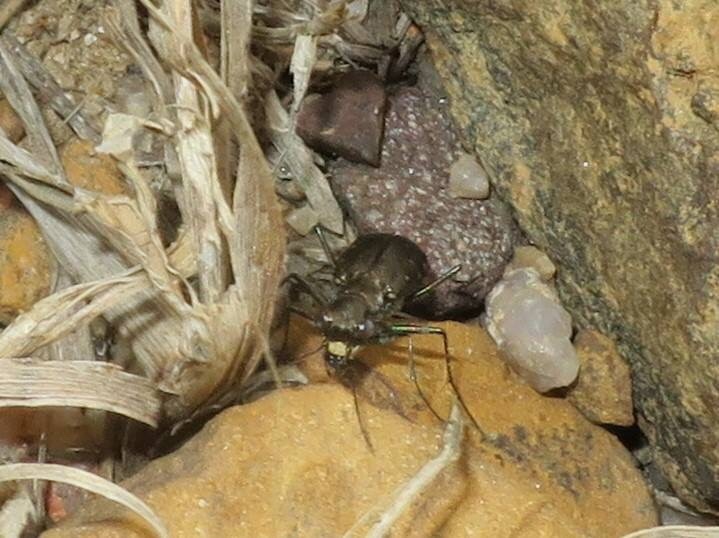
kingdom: Animalia
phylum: Arthropoda
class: Insecta
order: Coleoptera
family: Carabidae
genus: Cicindela
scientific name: Cicindela punctulata
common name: Punctured tiger beetle
